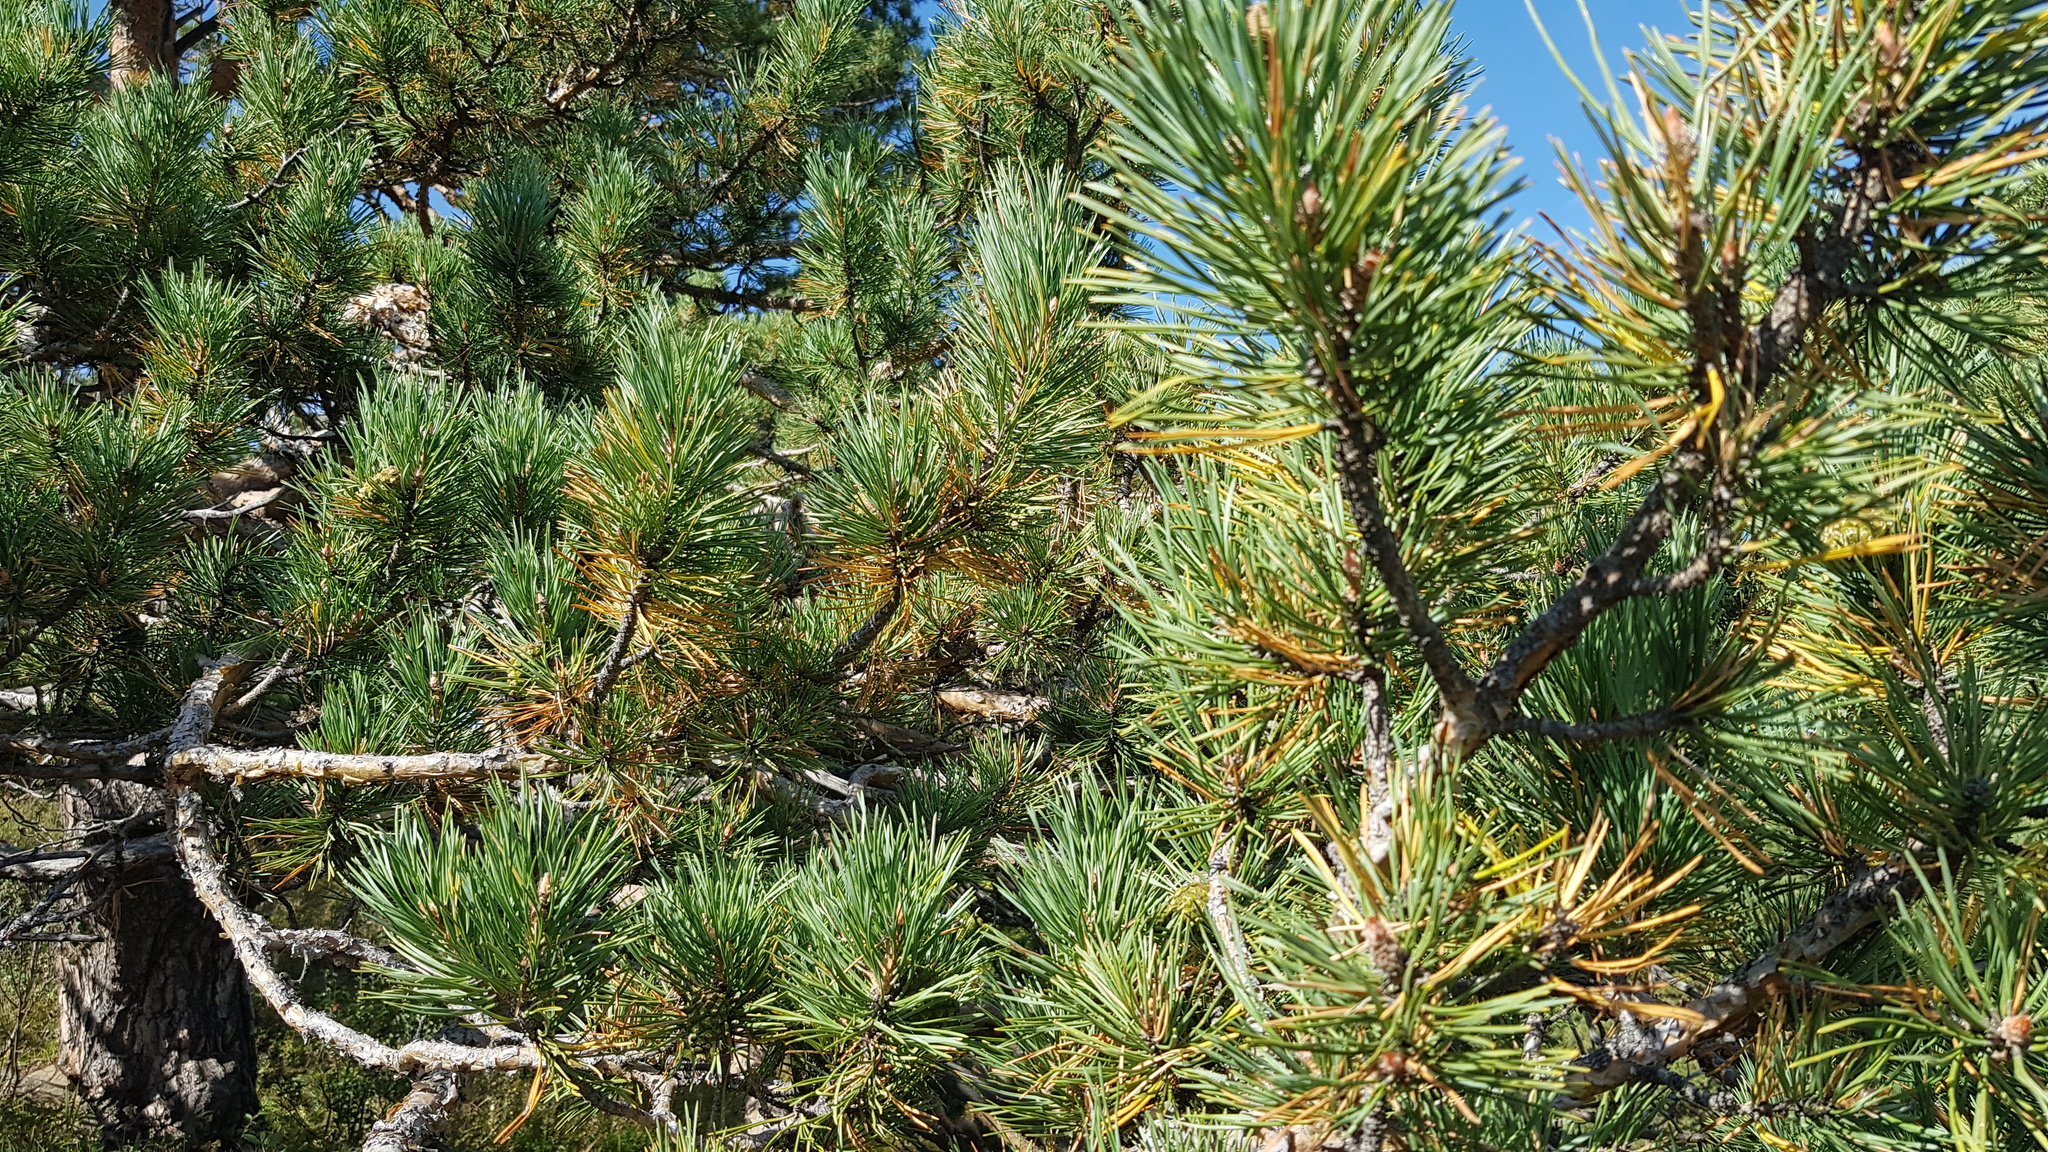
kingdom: Plantae
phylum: Tracheophyta
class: Pinopsida
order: Pinales
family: Pinaceae
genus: Pinus
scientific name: Pinus sylvestris
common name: Scots pine
